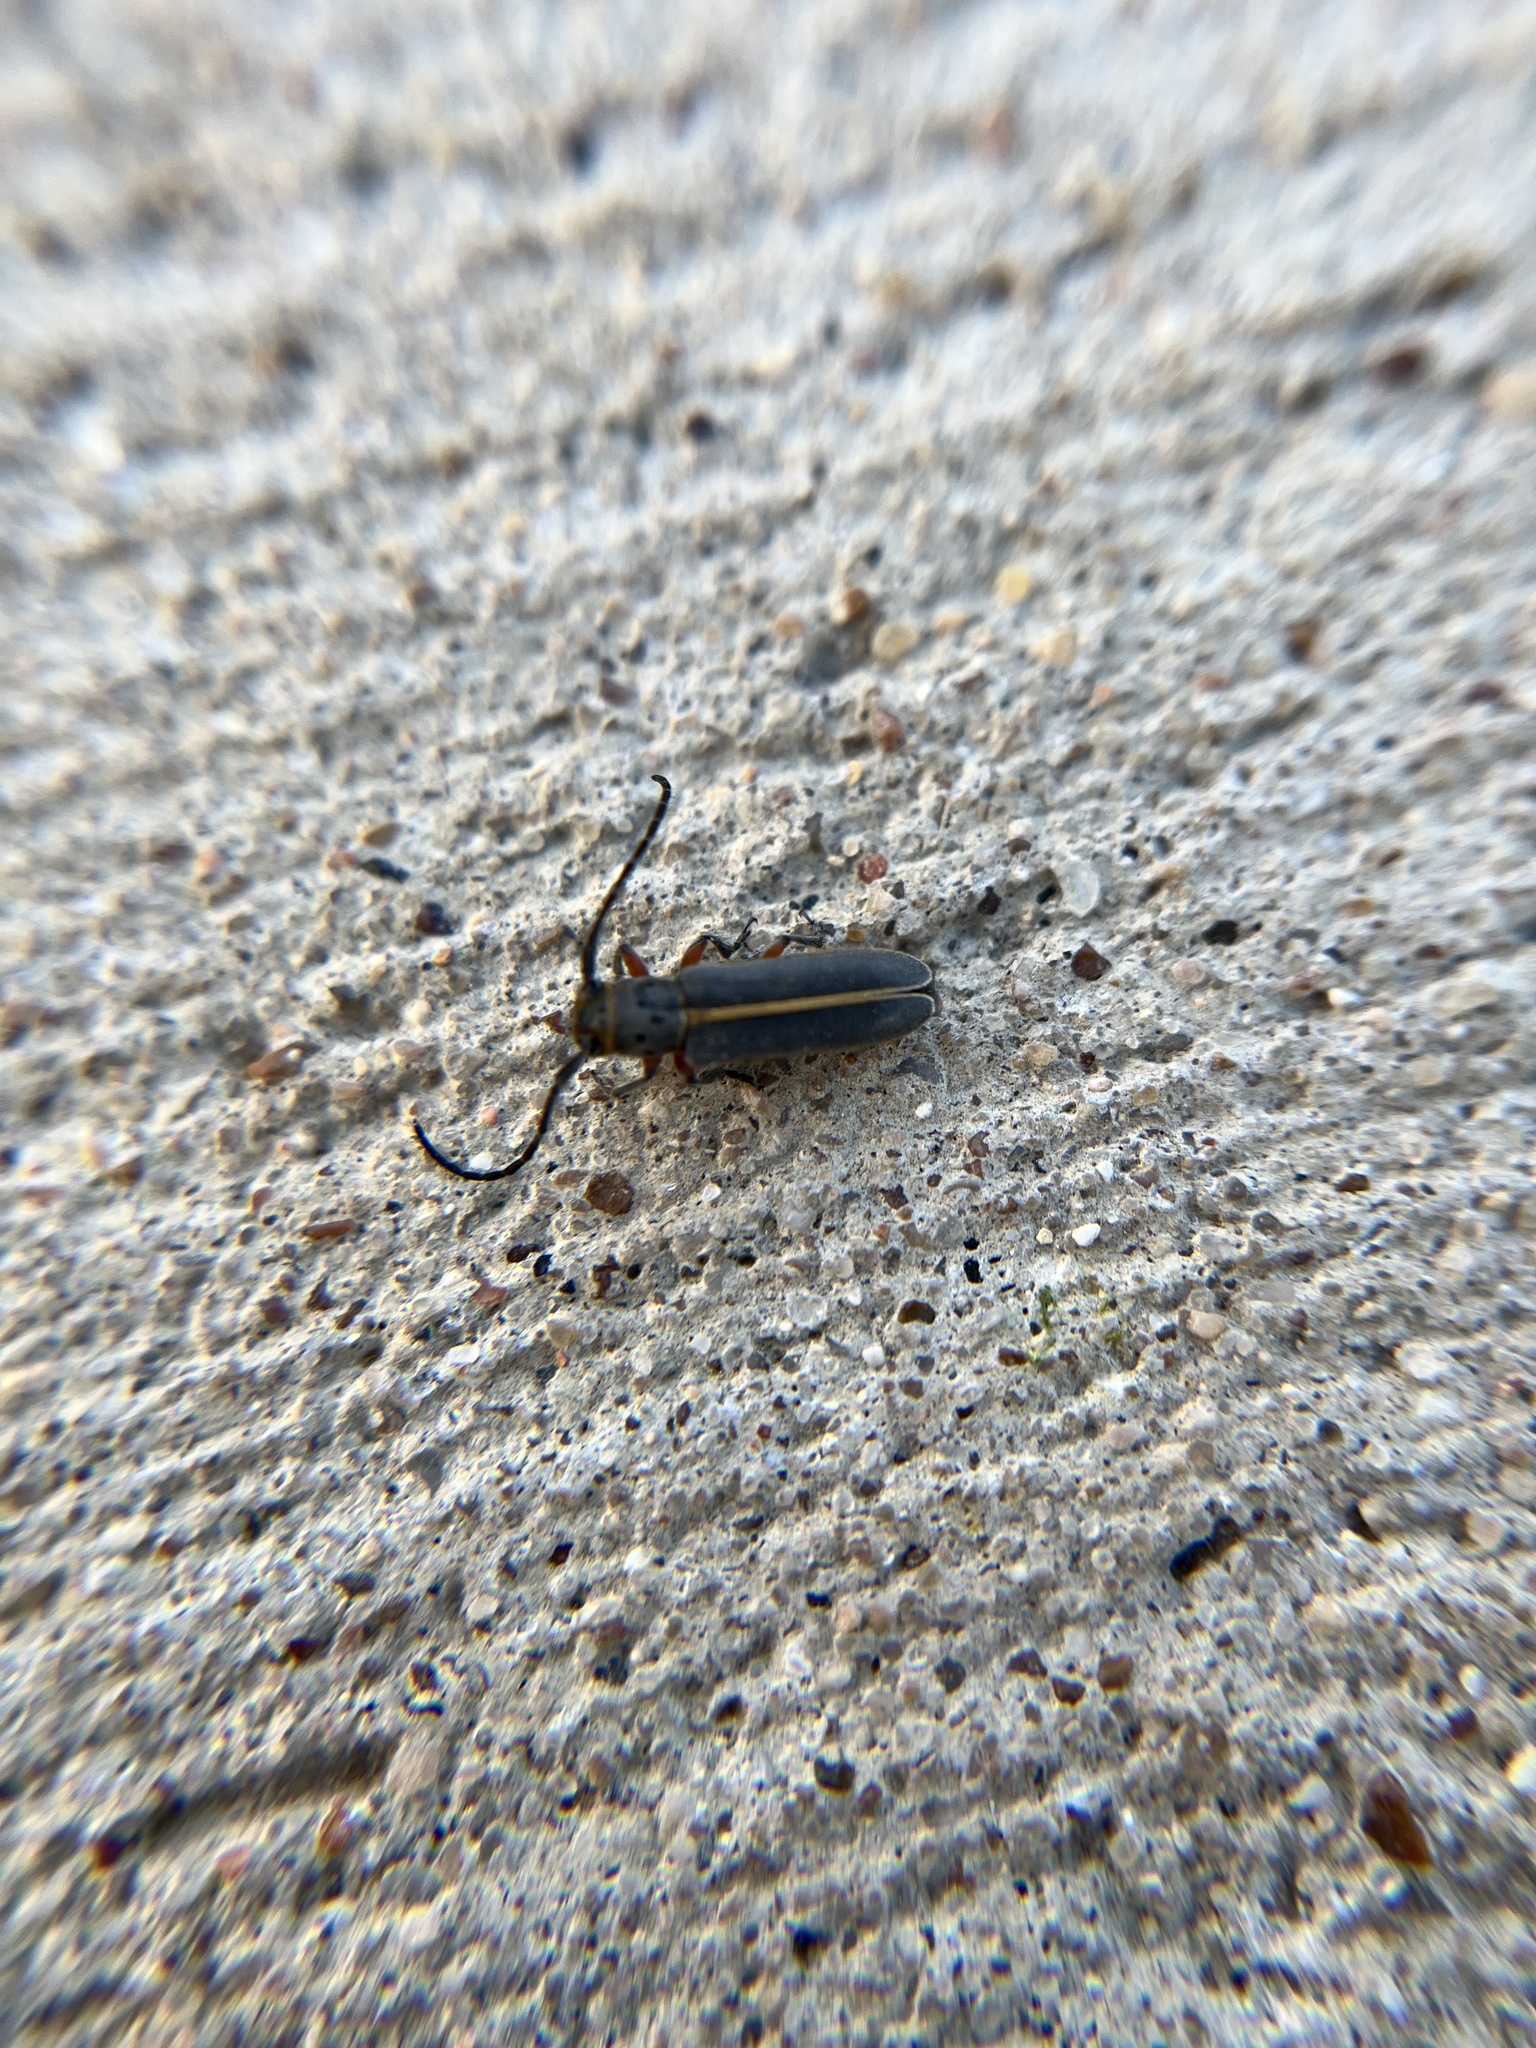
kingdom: Animalia
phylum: Arthropoda
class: Insecta
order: Coleoptera
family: Cerambycidae
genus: Mecas
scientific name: Mecas pergrata
